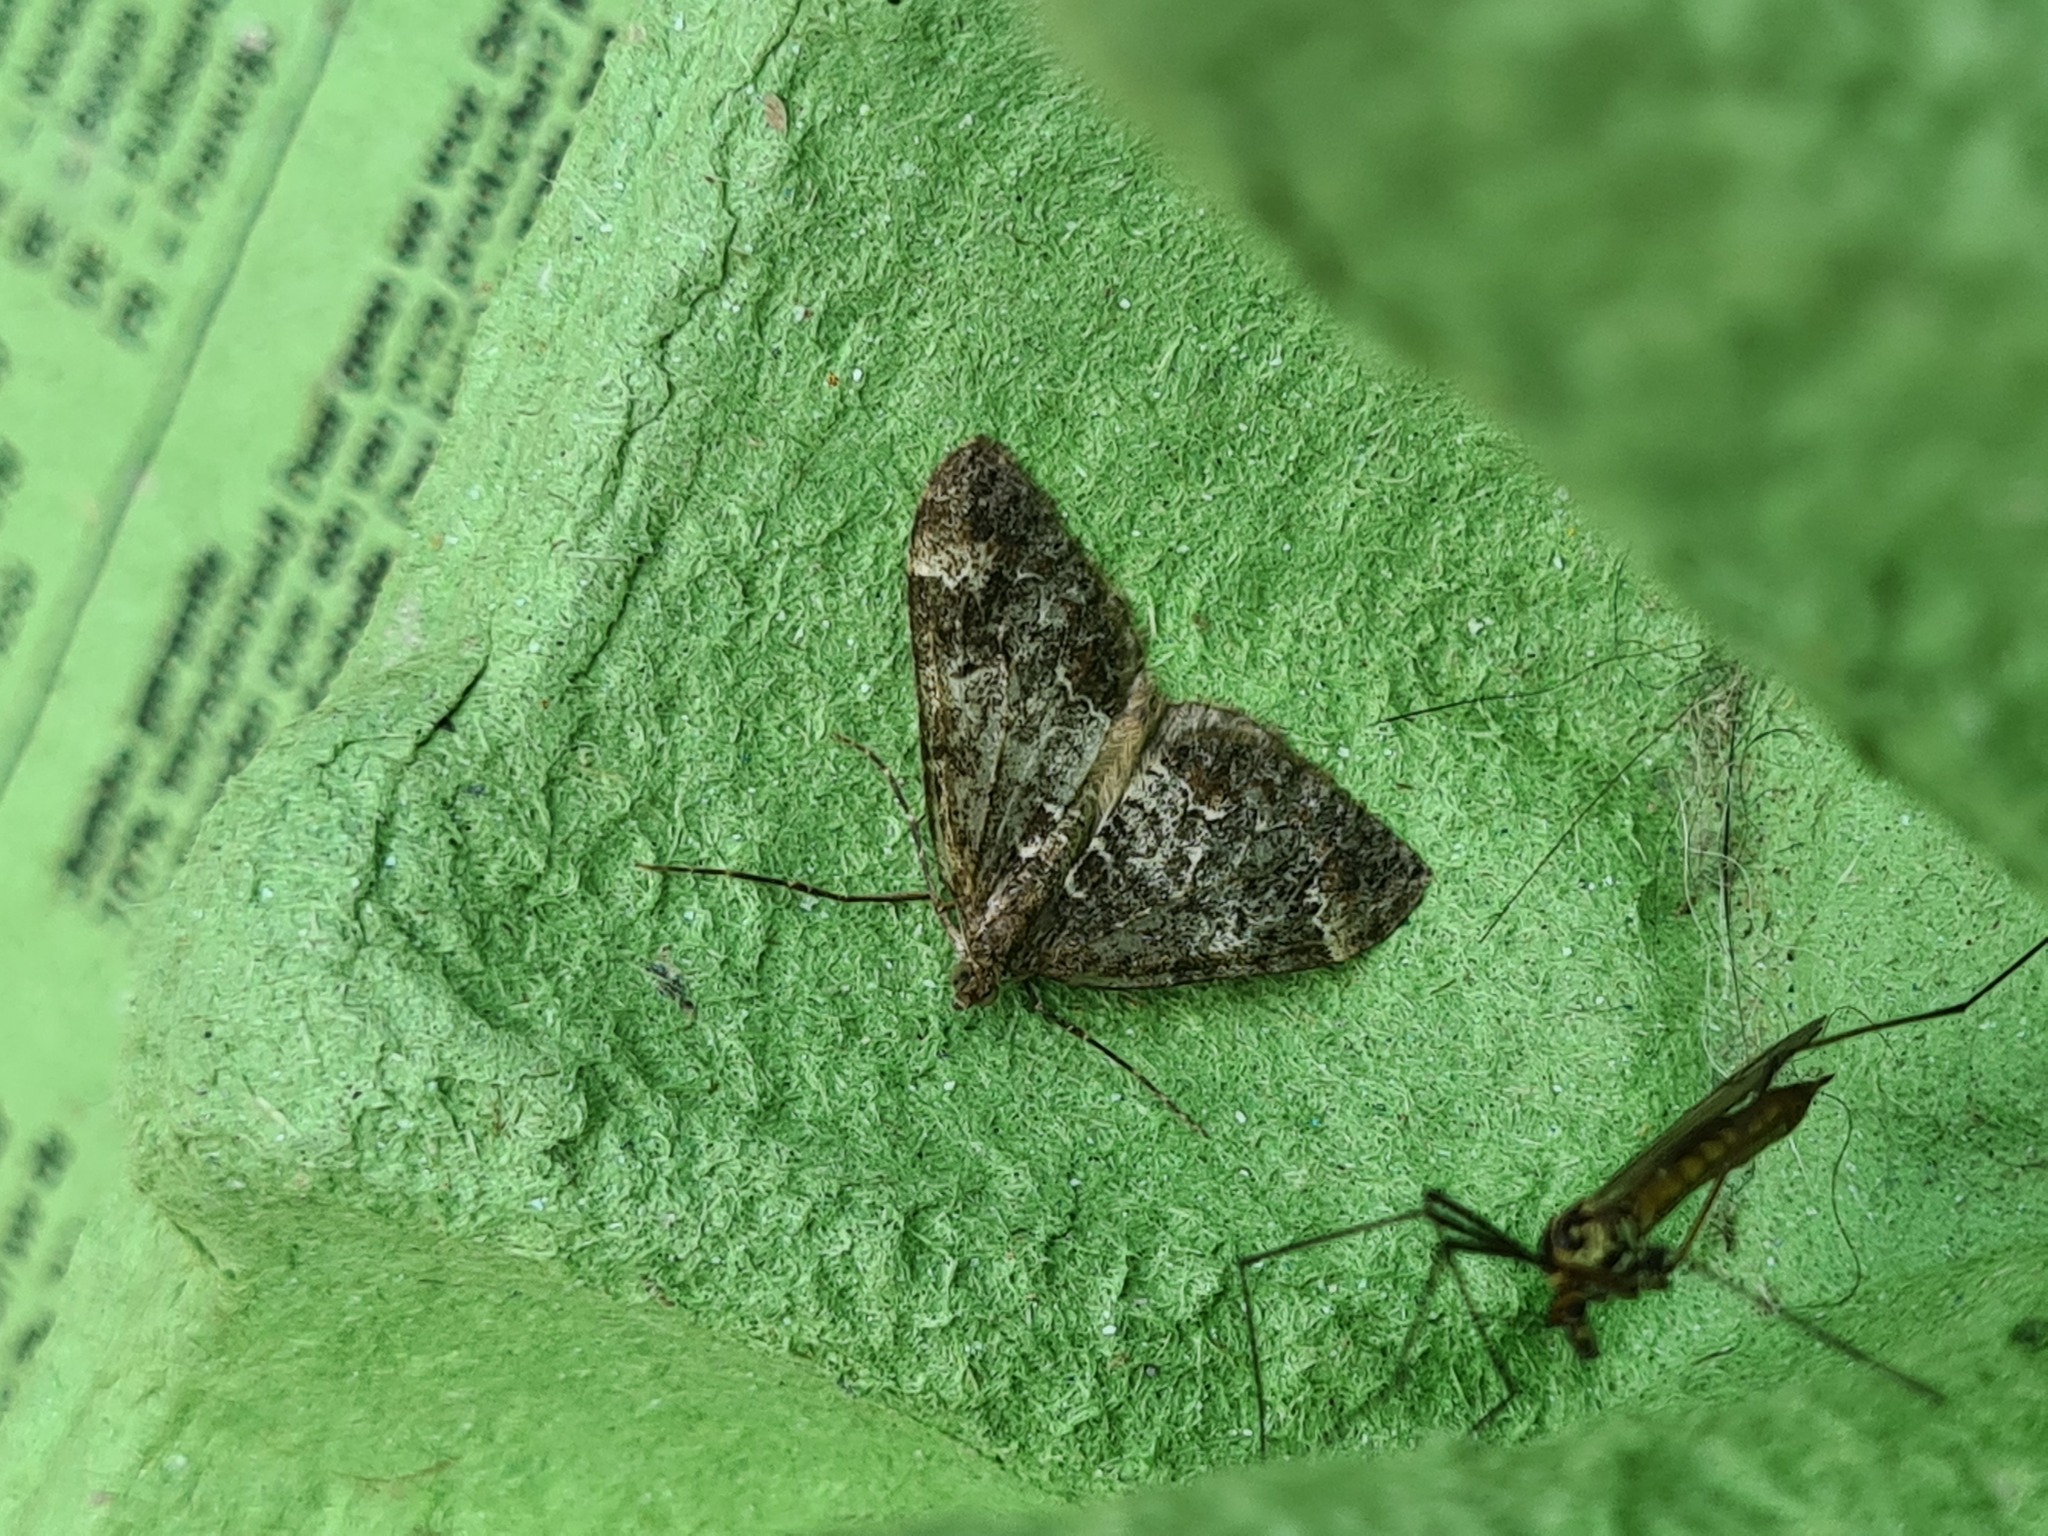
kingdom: Animalia
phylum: Arthropoda
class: Insecta
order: Lepidoptera
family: Geometridae
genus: Dysstroma
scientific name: Dysstroma truncata
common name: Common marbled carpet
